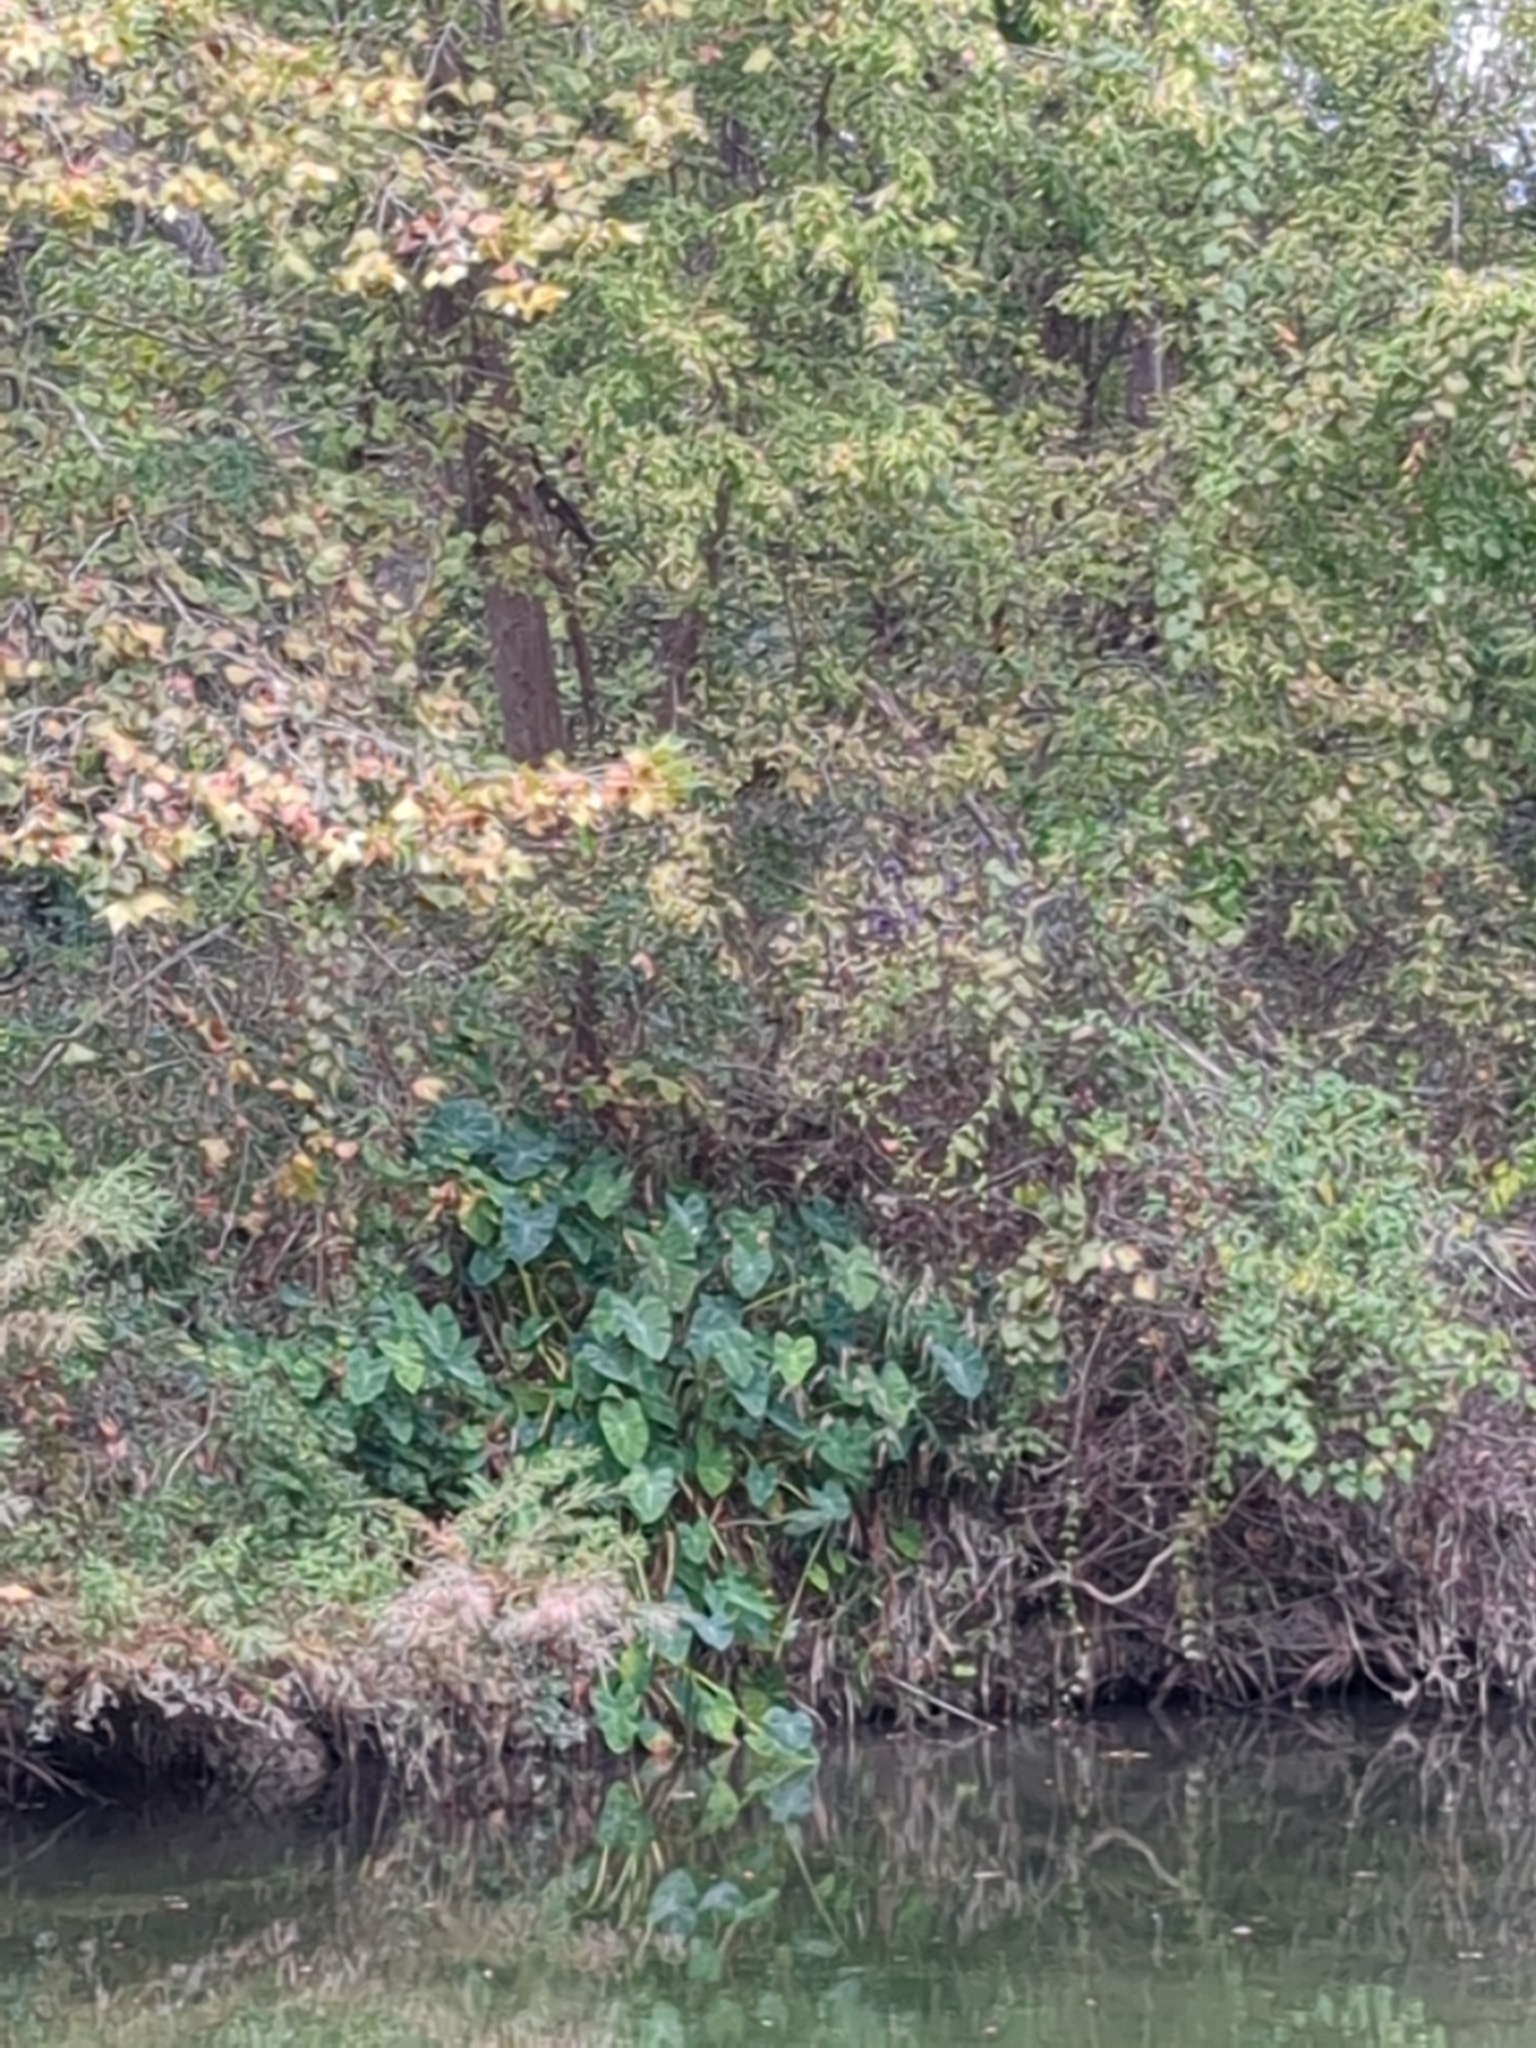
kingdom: Plantae
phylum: Tracheophyta
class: Liliopsida
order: Alismatales
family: Araceae
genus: Colocasia
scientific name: Colocasia esculenta
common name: Taro
